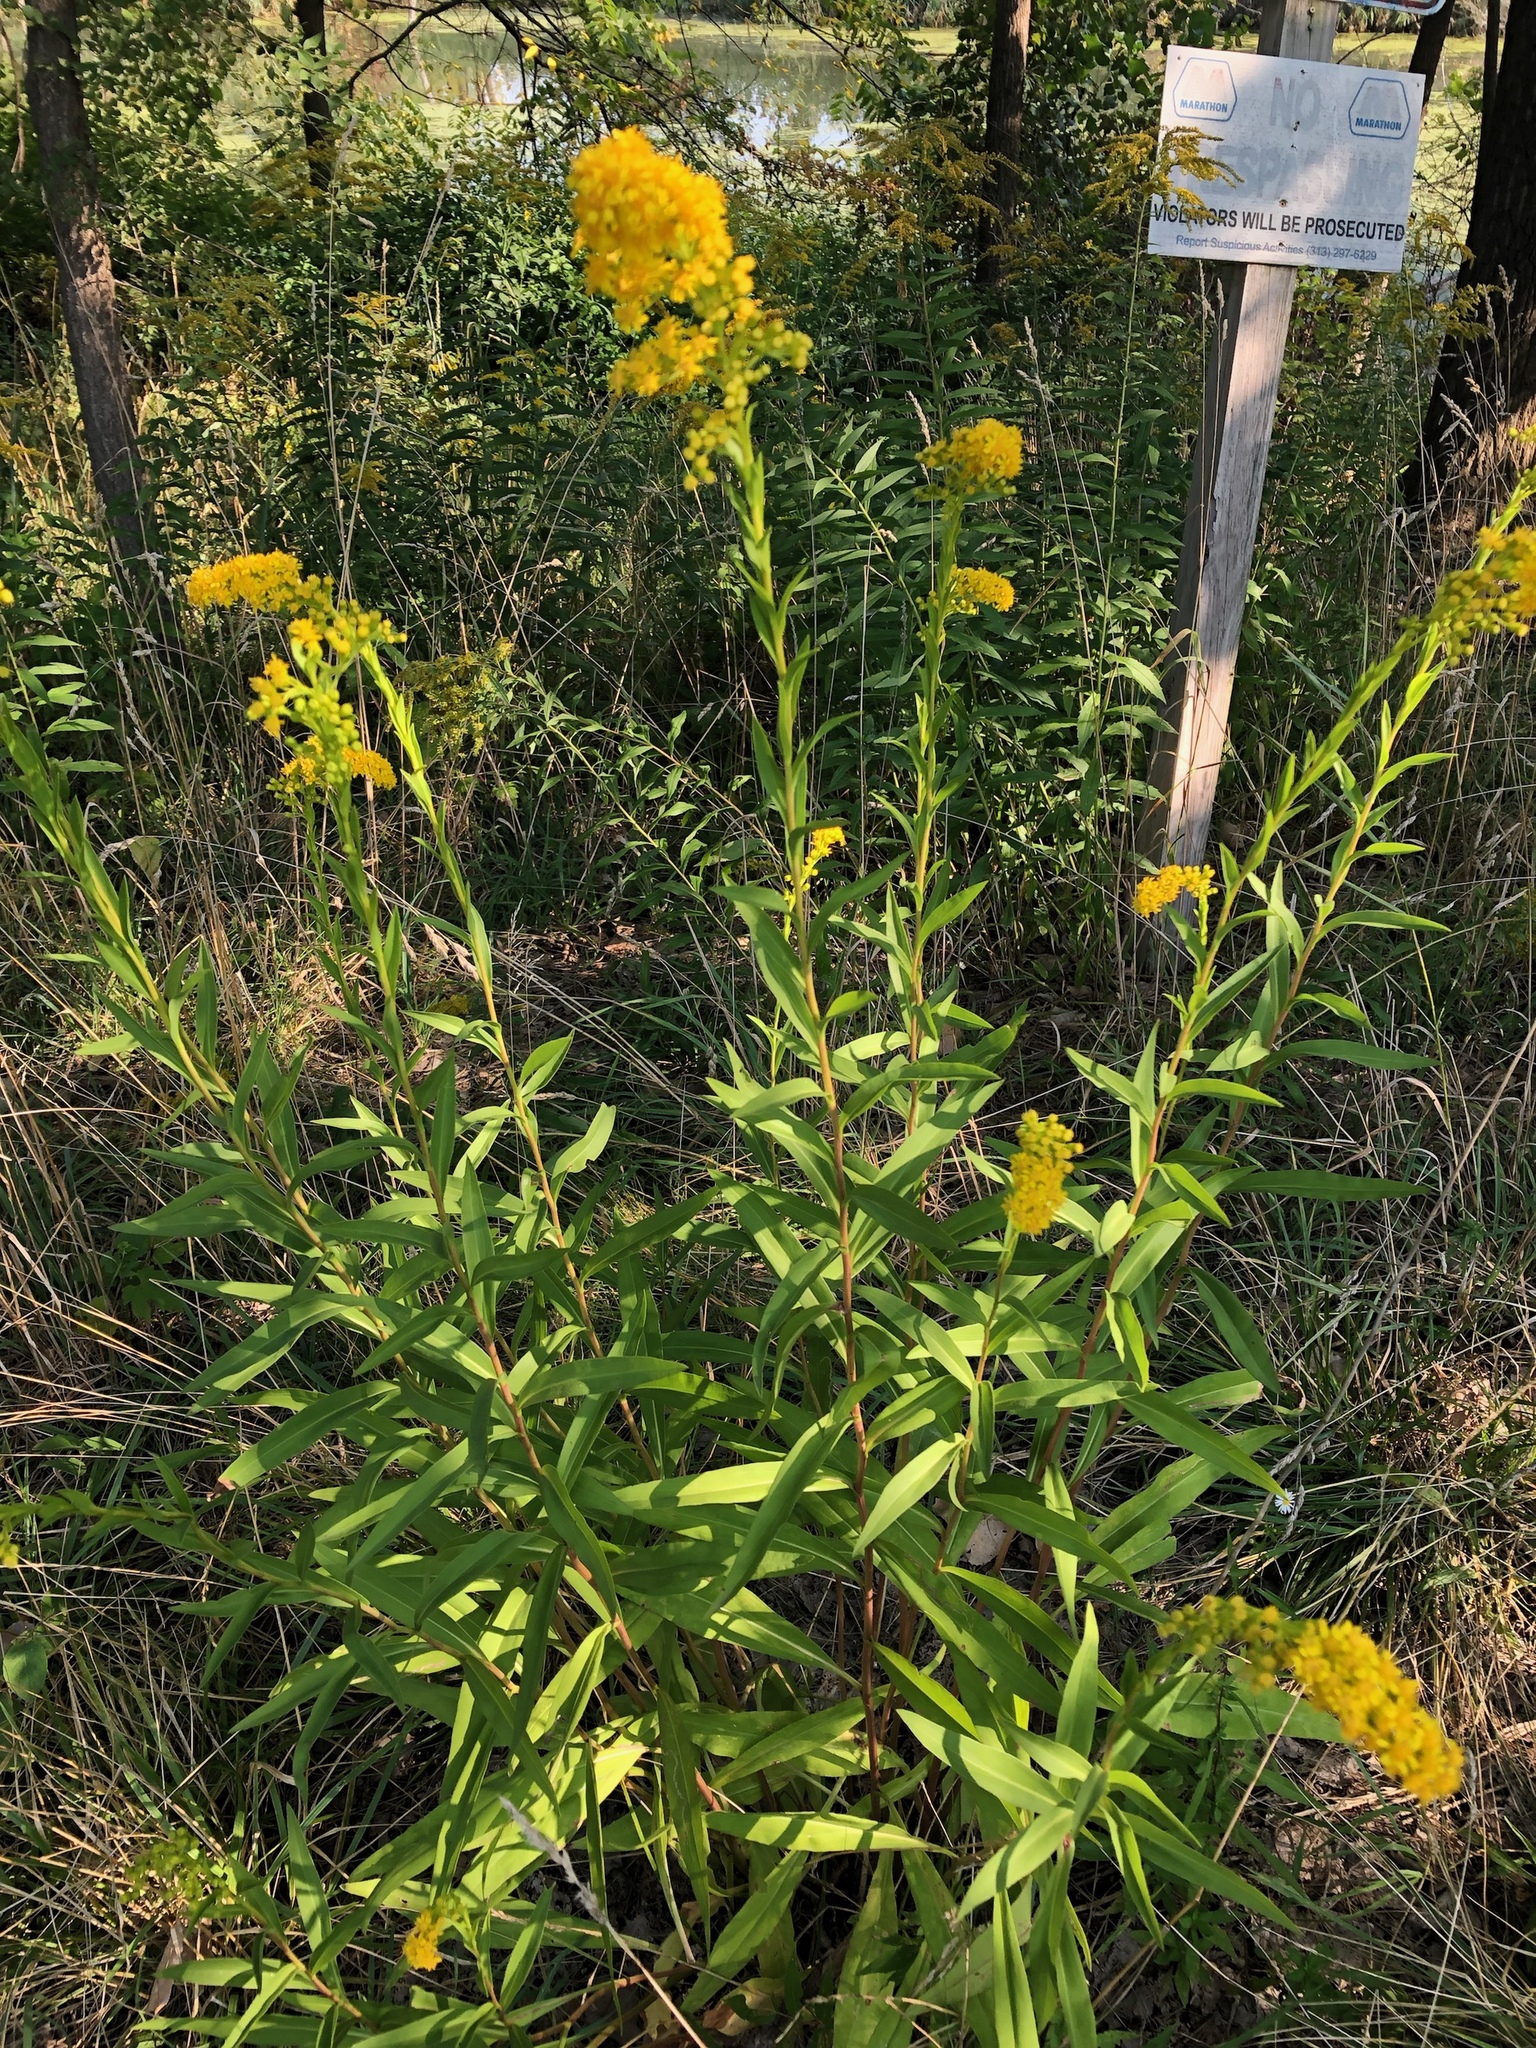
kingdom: Plantae
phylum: Tracheophyta
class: Magnoliopsida
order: Asterales
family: Asteraceae
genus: Solidago
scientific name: Solidago sempervirens
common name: Salt-marsh goldenrod
